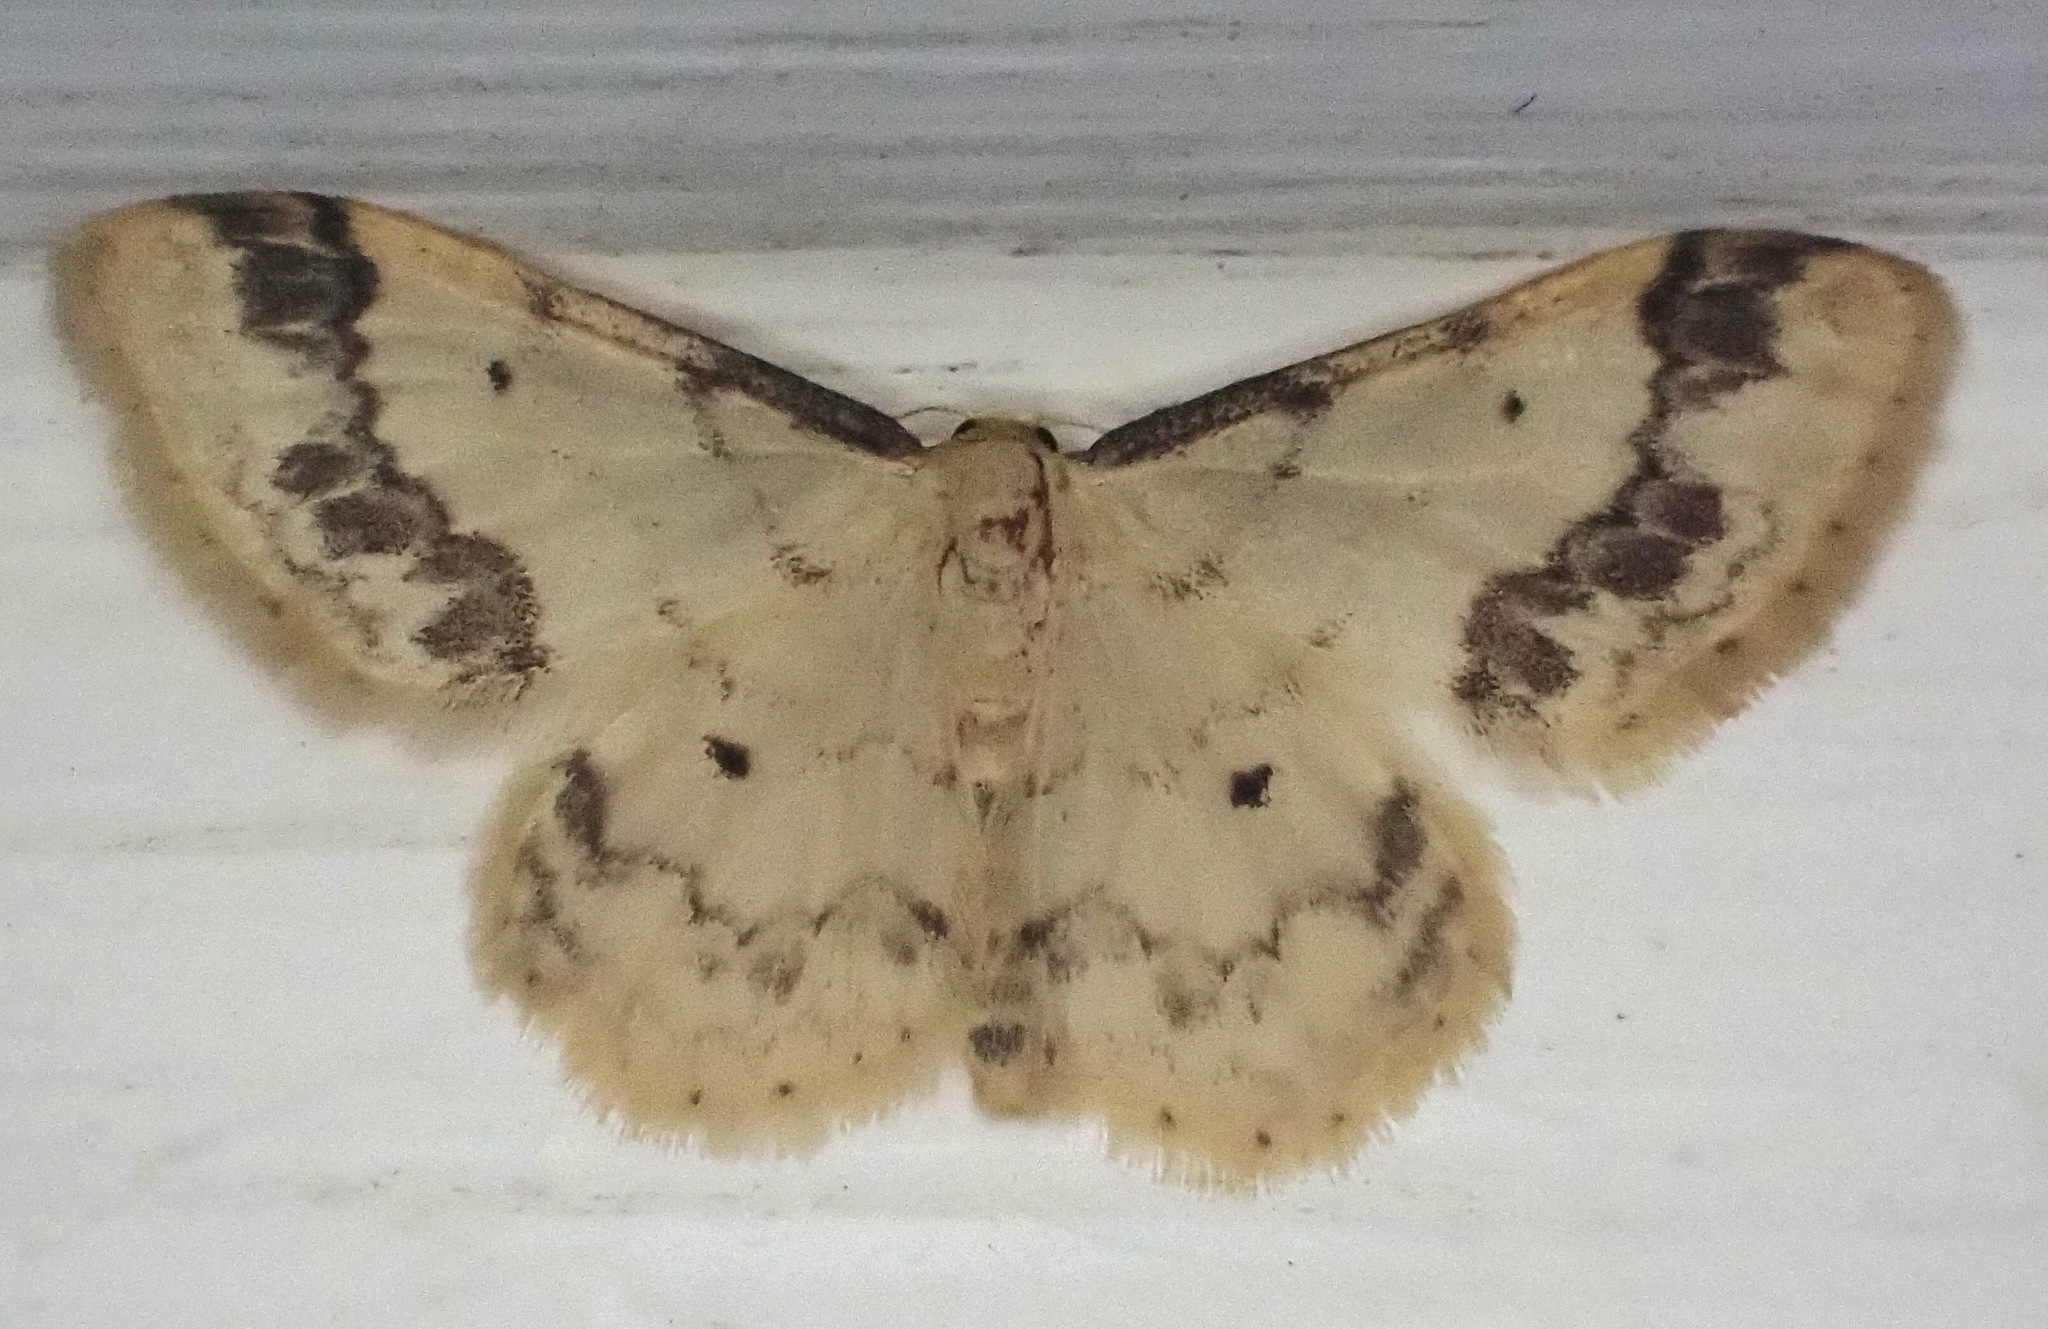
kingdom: Animalia
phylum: Arthropoda
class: Insecta
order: Lepidoptera
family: Geometridae
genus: Idaea
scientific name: Idaea trigeminata
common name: Treble brown spot
